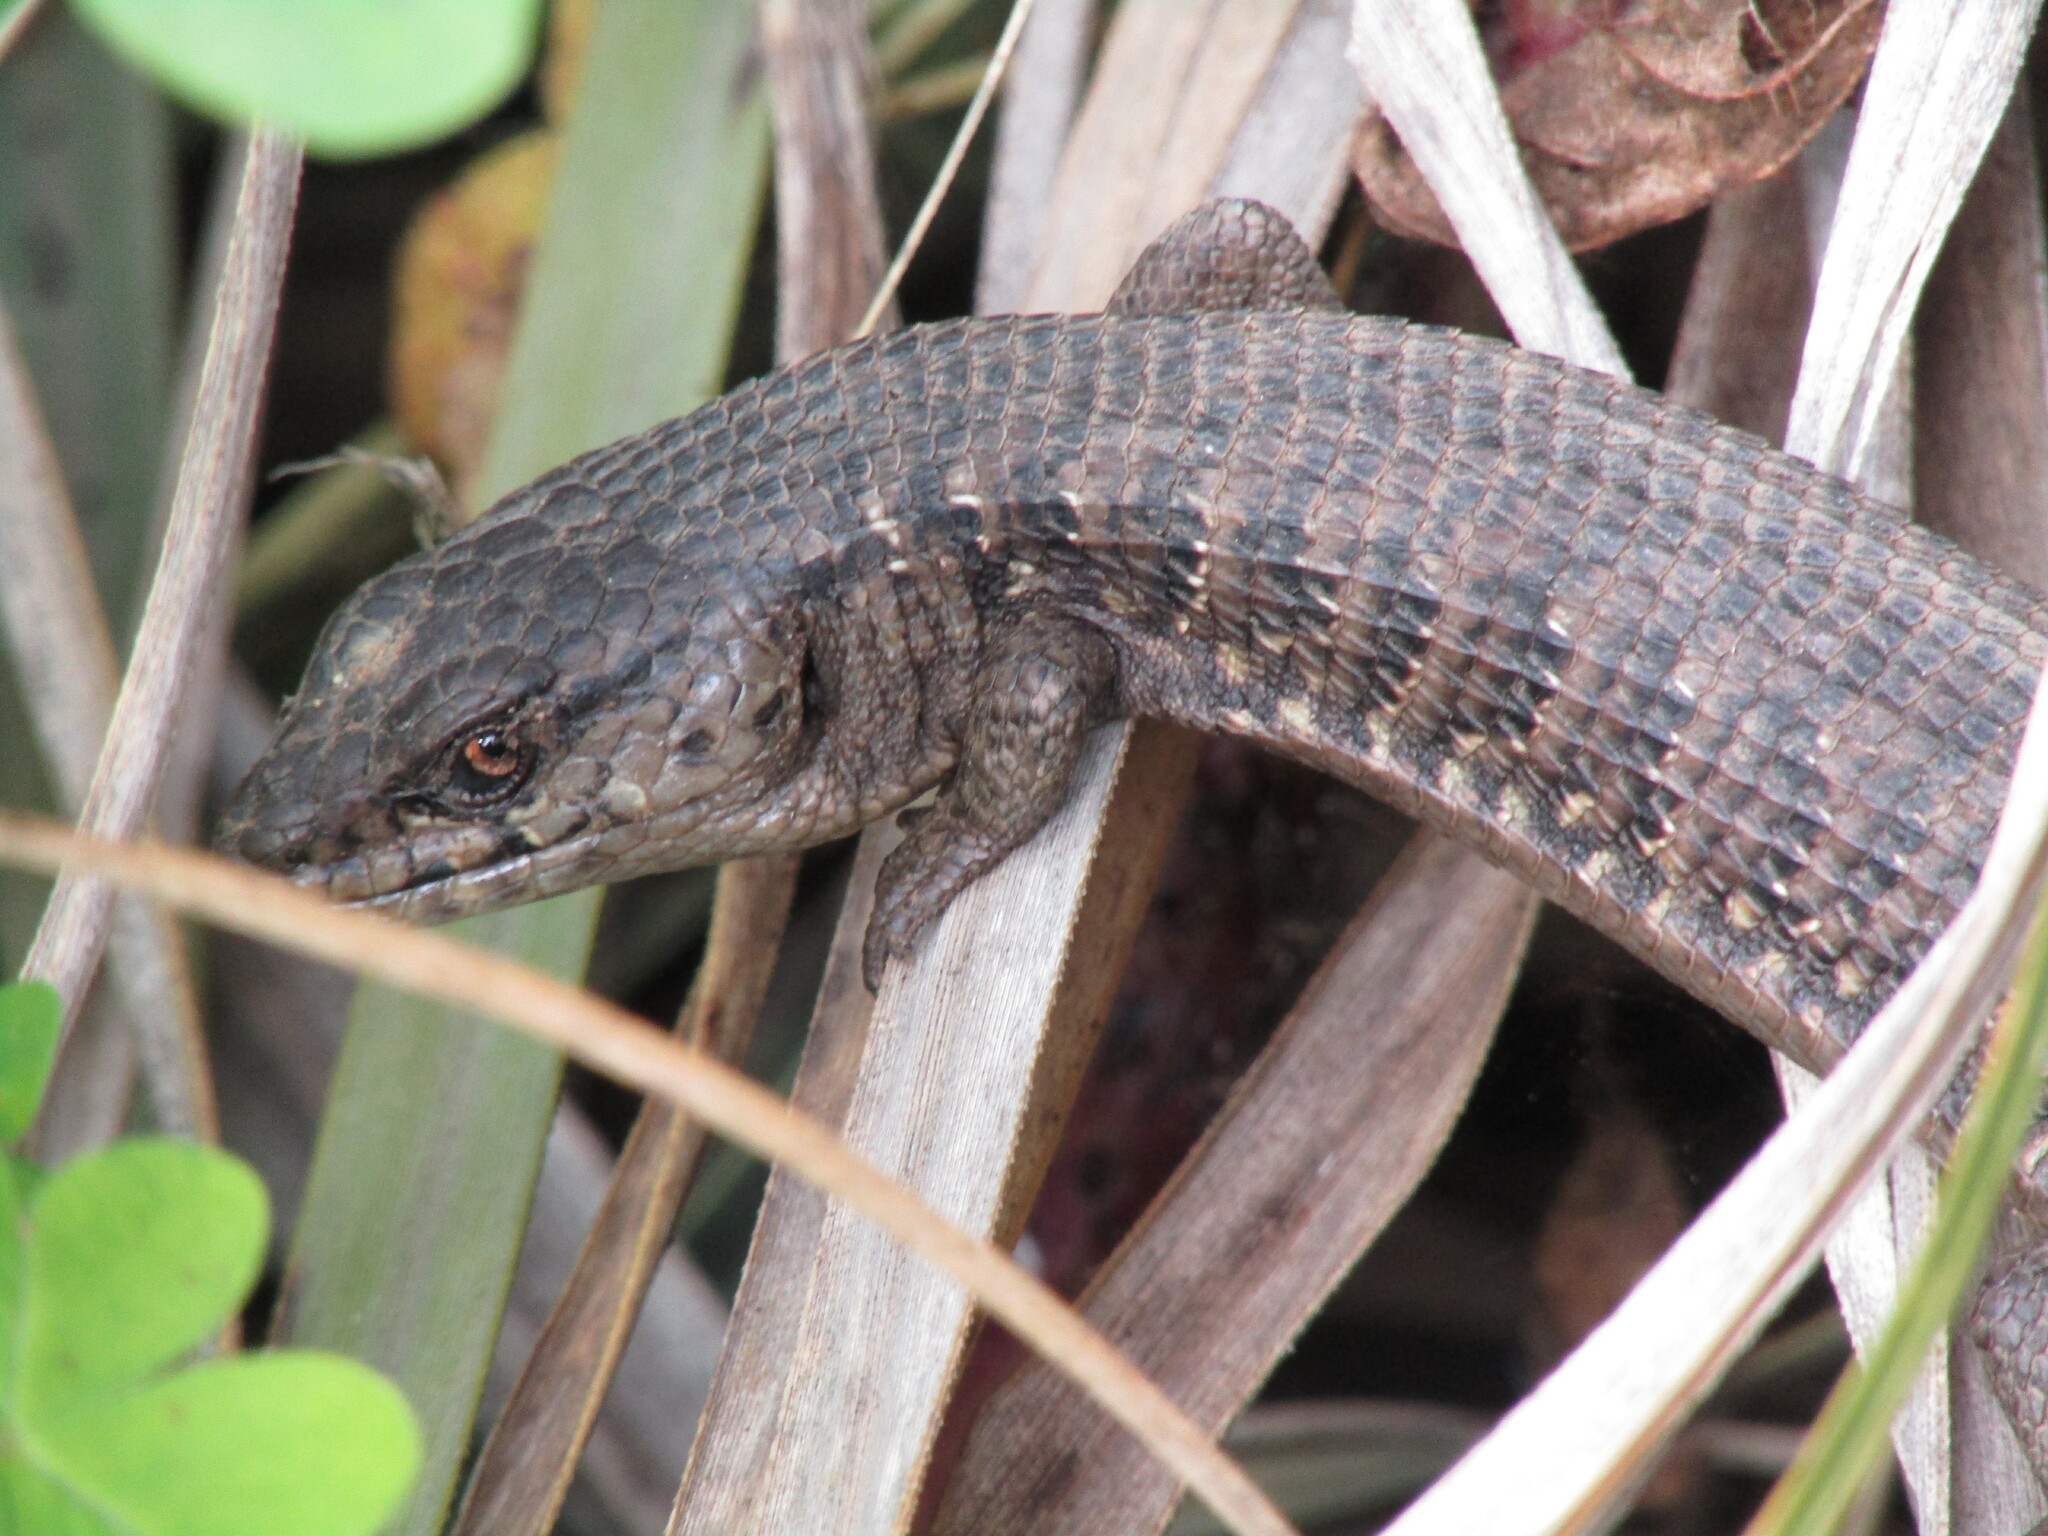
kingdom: Animalia
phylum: Chordata
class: Squamata
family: Anguidae
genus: Elgaria
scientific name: Elgaria multicarinata
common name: Southern alligator lizard
